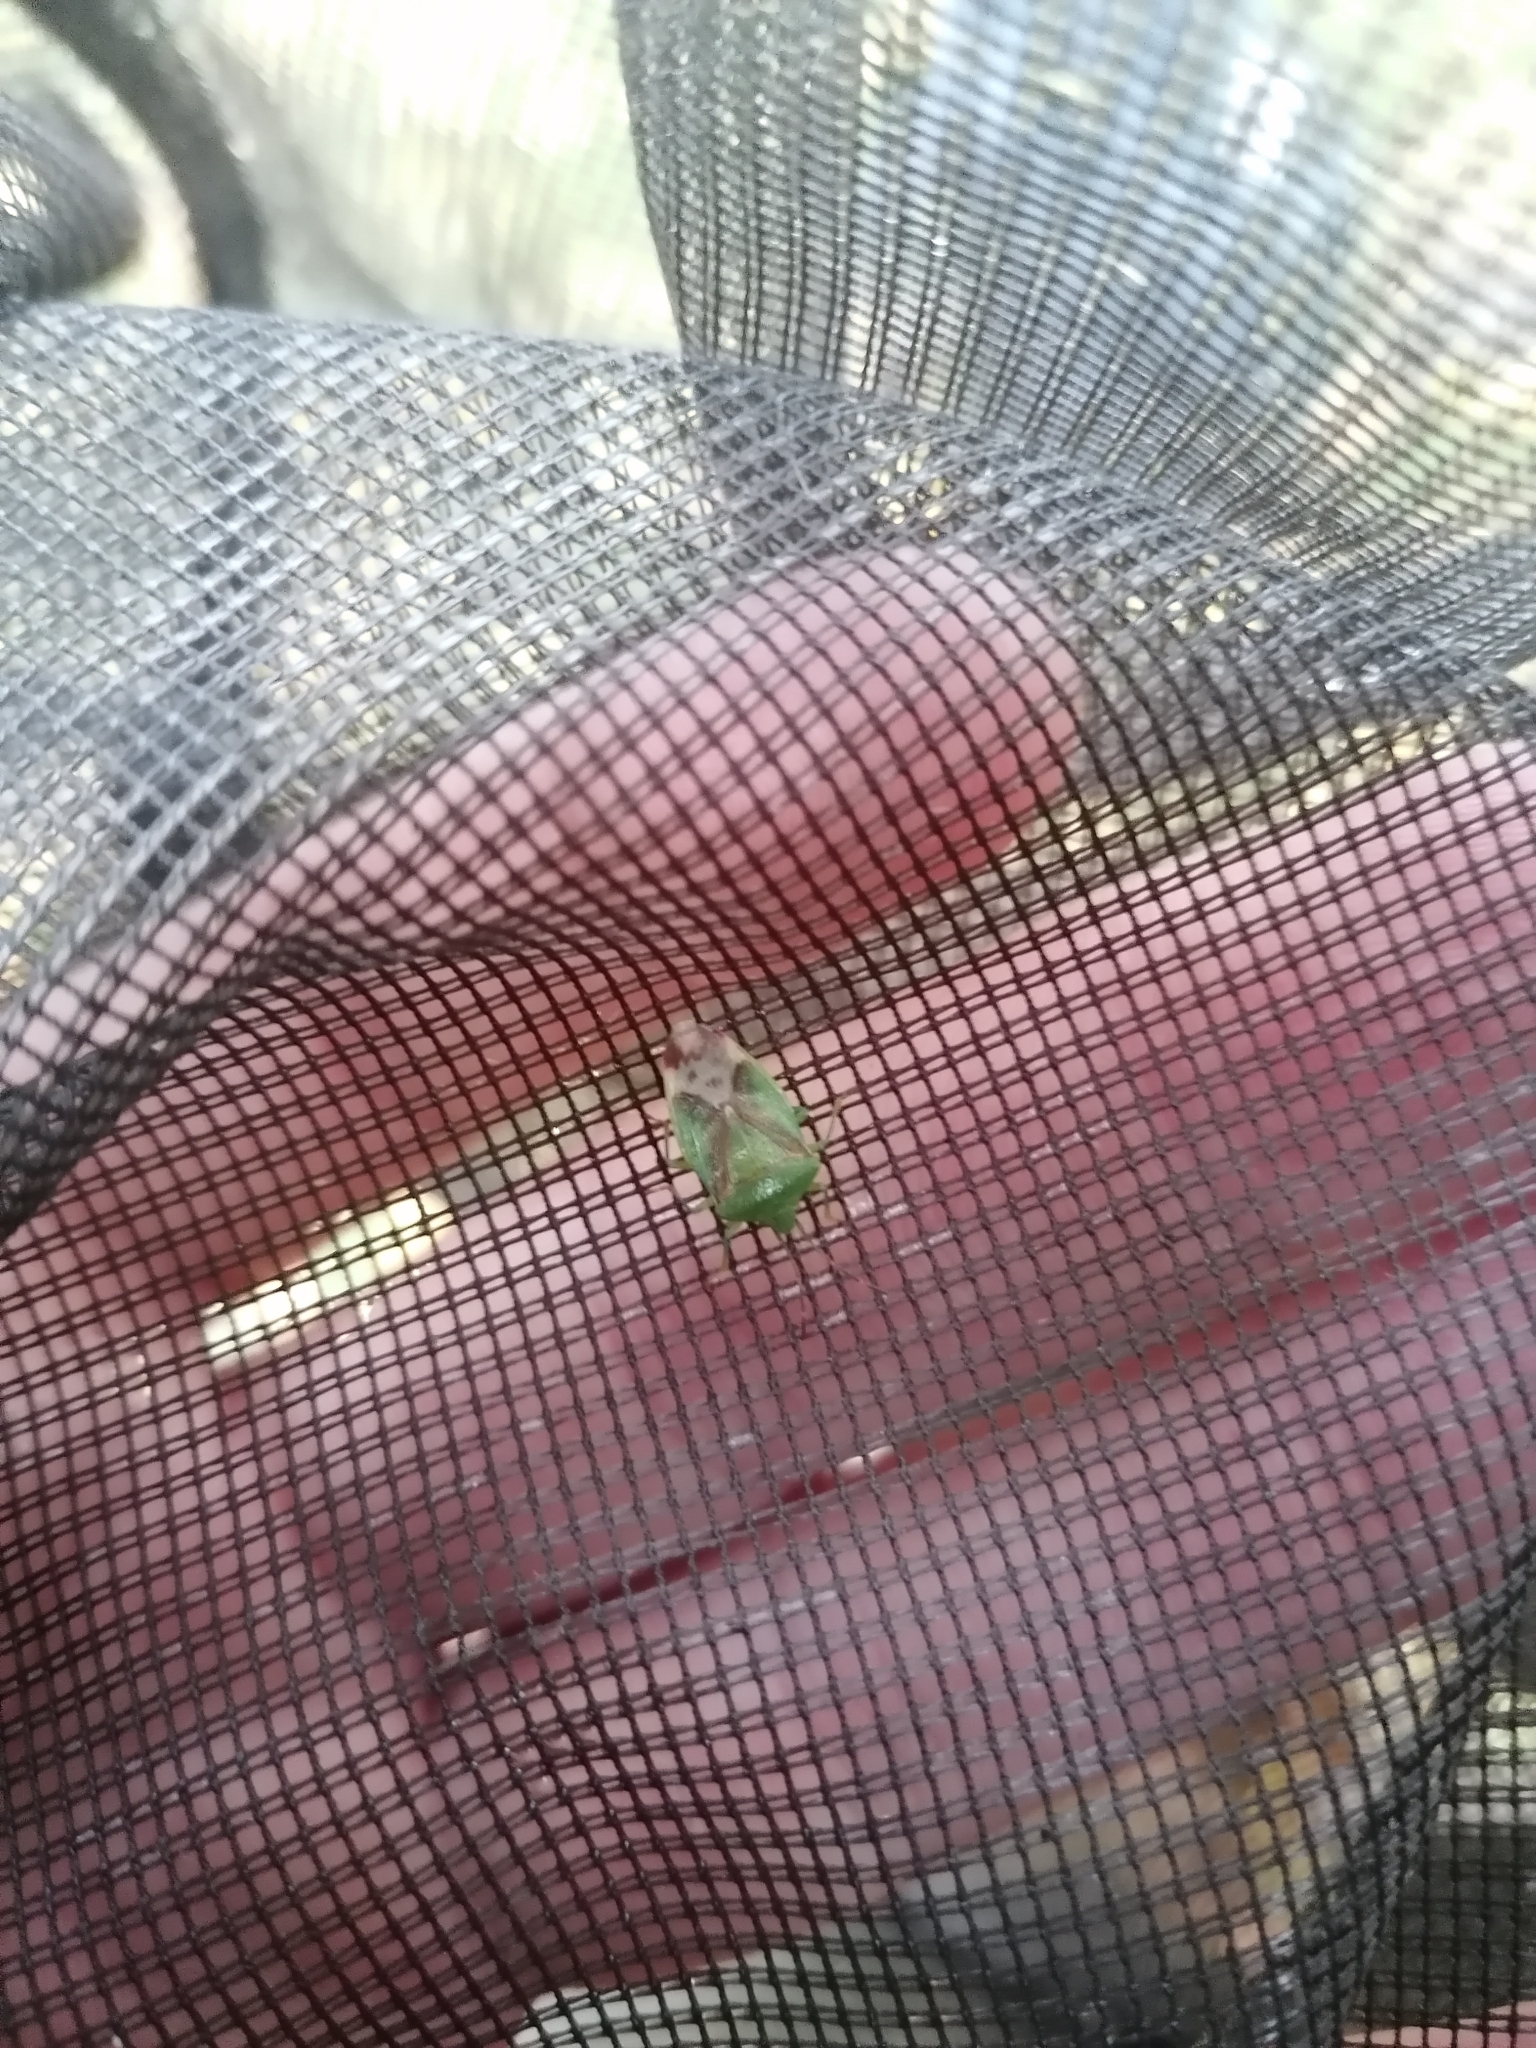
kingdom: Animalia
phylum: Arthropoda
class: Insecta
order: Hemiptera
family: Acanthosomatidae
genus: Elasmostethus
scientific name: Elasmostethus
